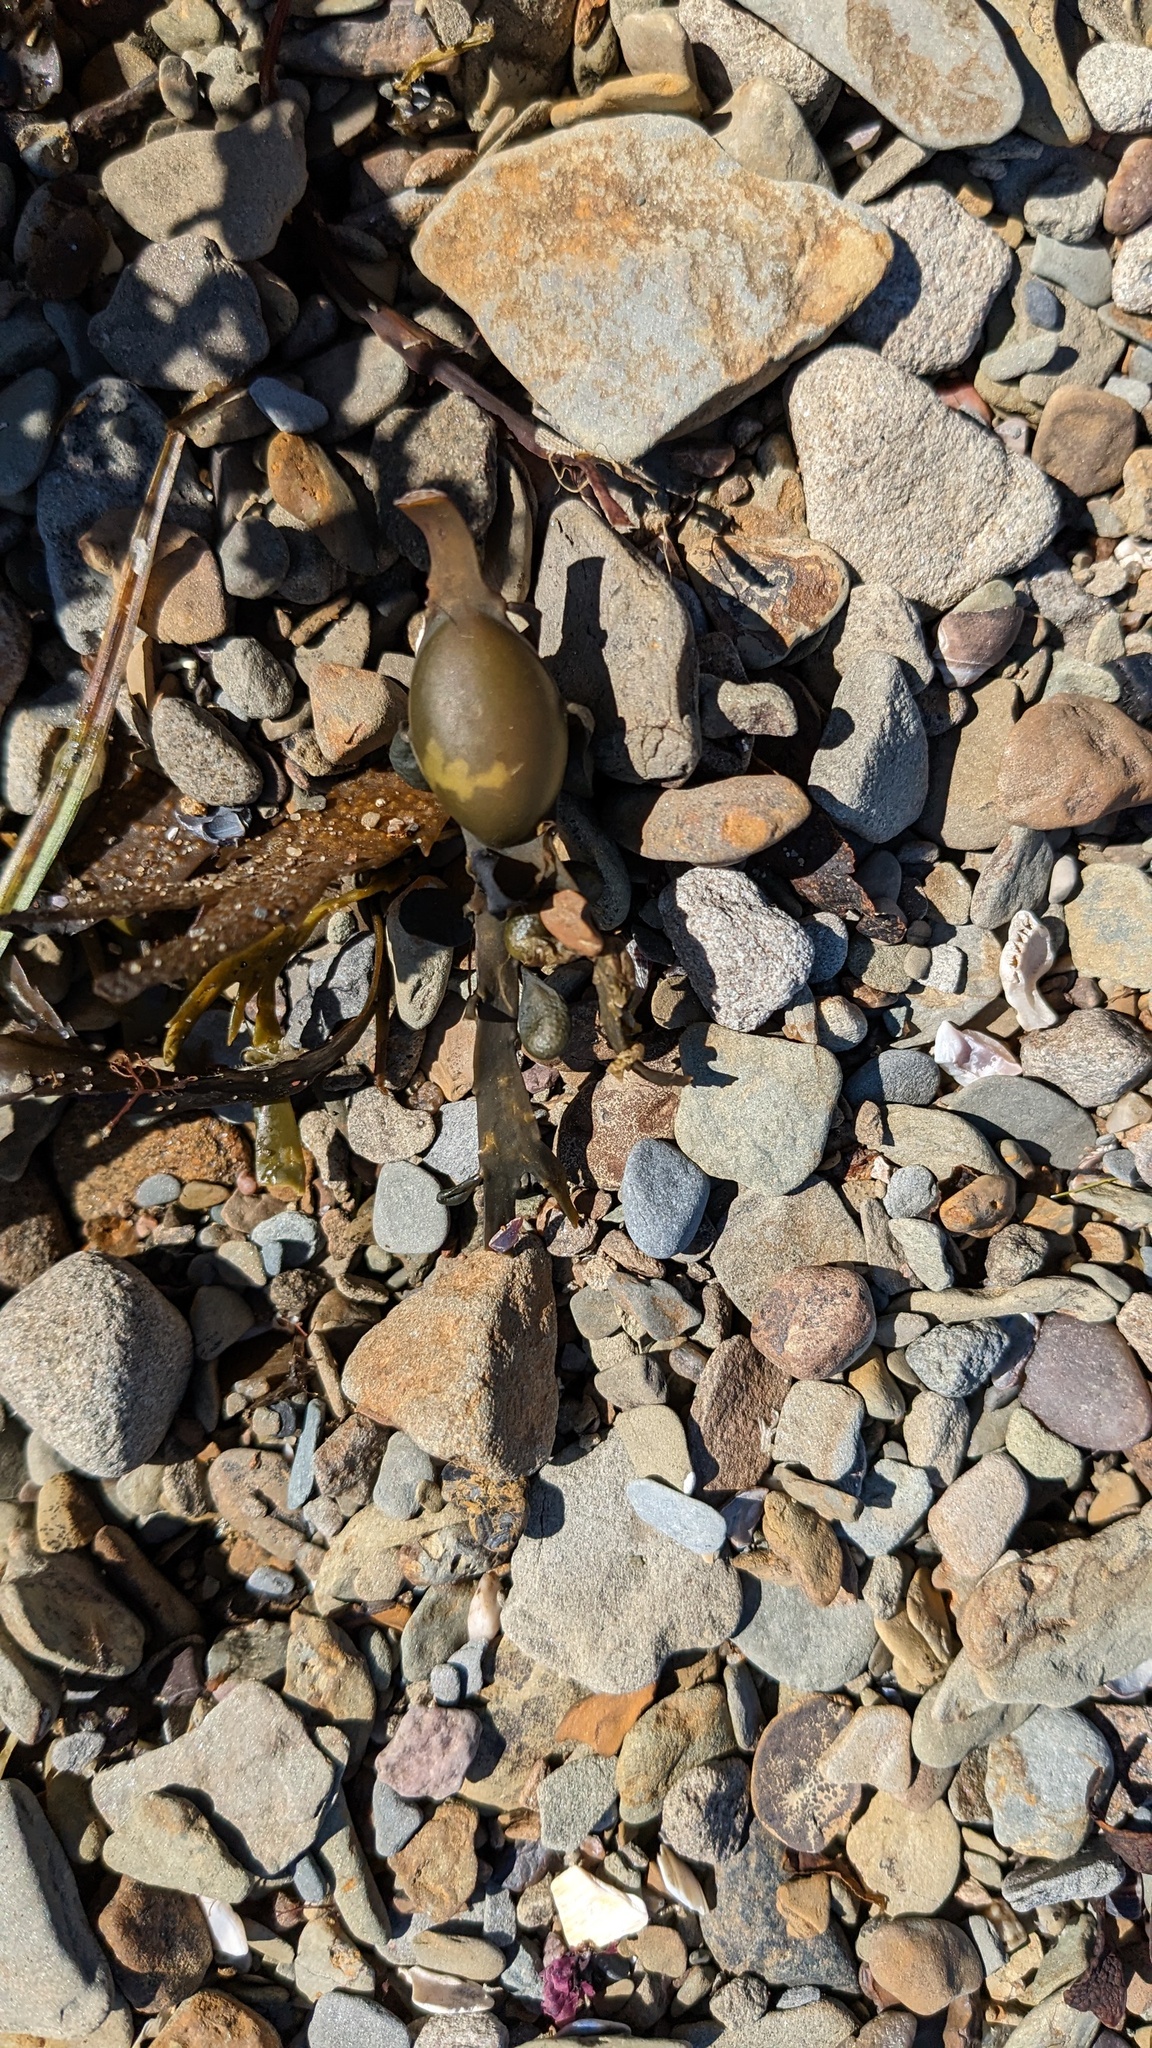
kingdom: Chromista
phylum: Ochrophyta
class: Phaeophyceae
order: Fucales
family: Fucaceae
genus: Ascophyllum
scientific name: Ascophyllum nodosum
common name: Knotted wrack
